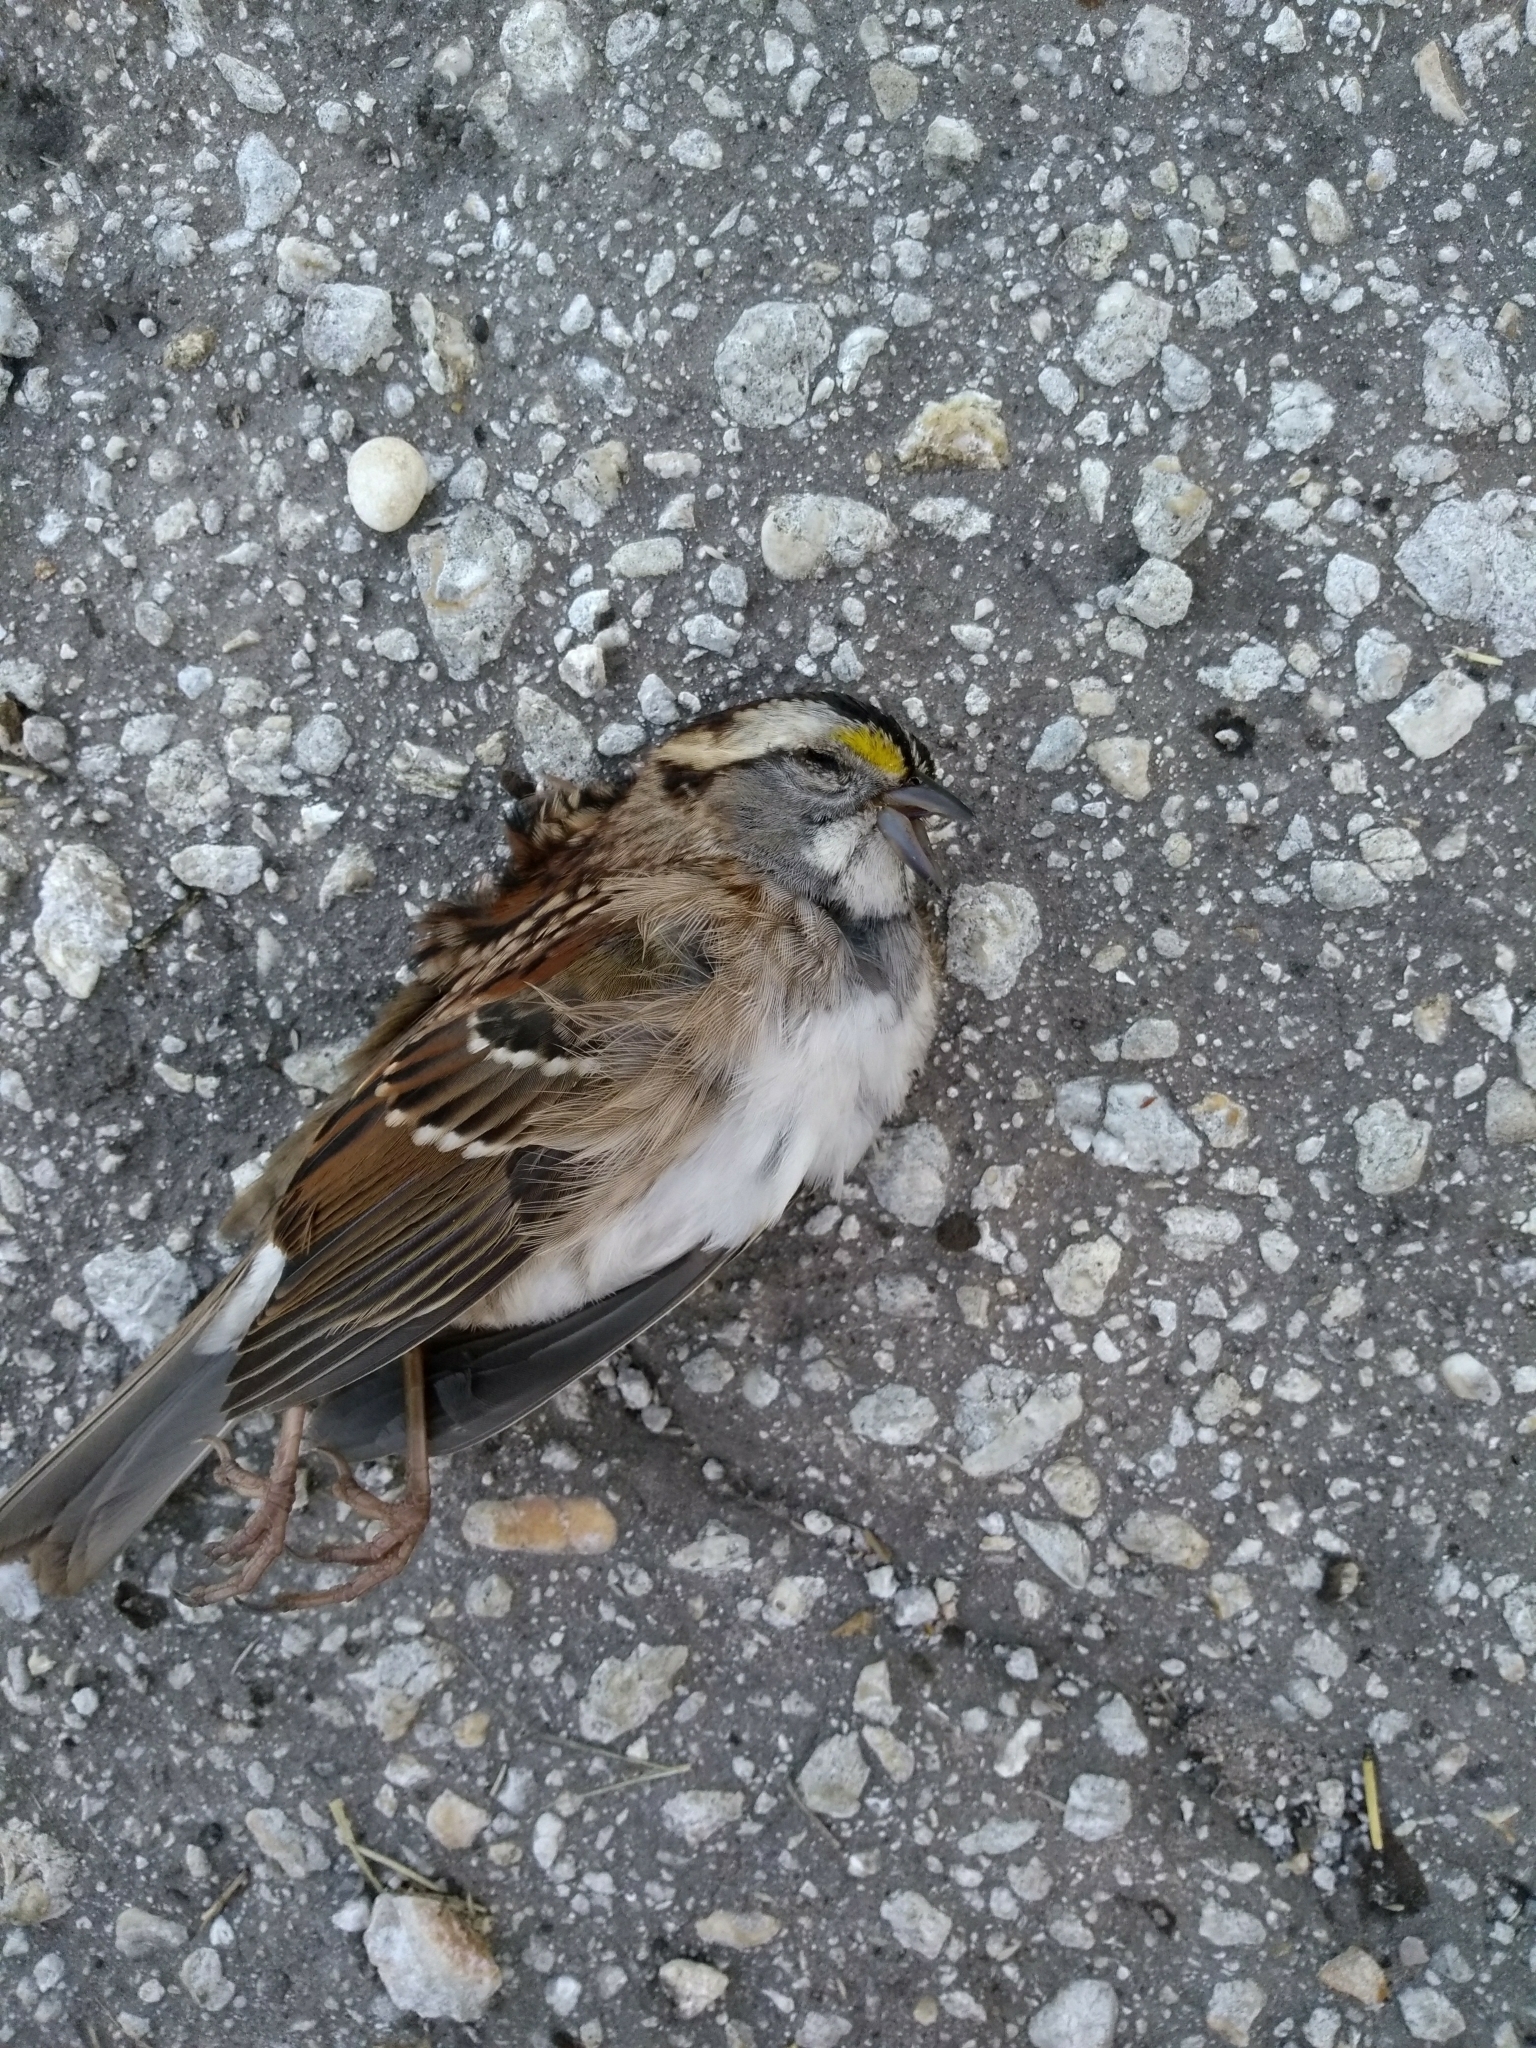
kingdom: Animalia
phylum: Chordata
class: Aves
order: Passeriformes
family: Passerellidae
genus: Zonotrichia
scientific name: Zonotrichia albicollis
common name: White-throated sparrow
